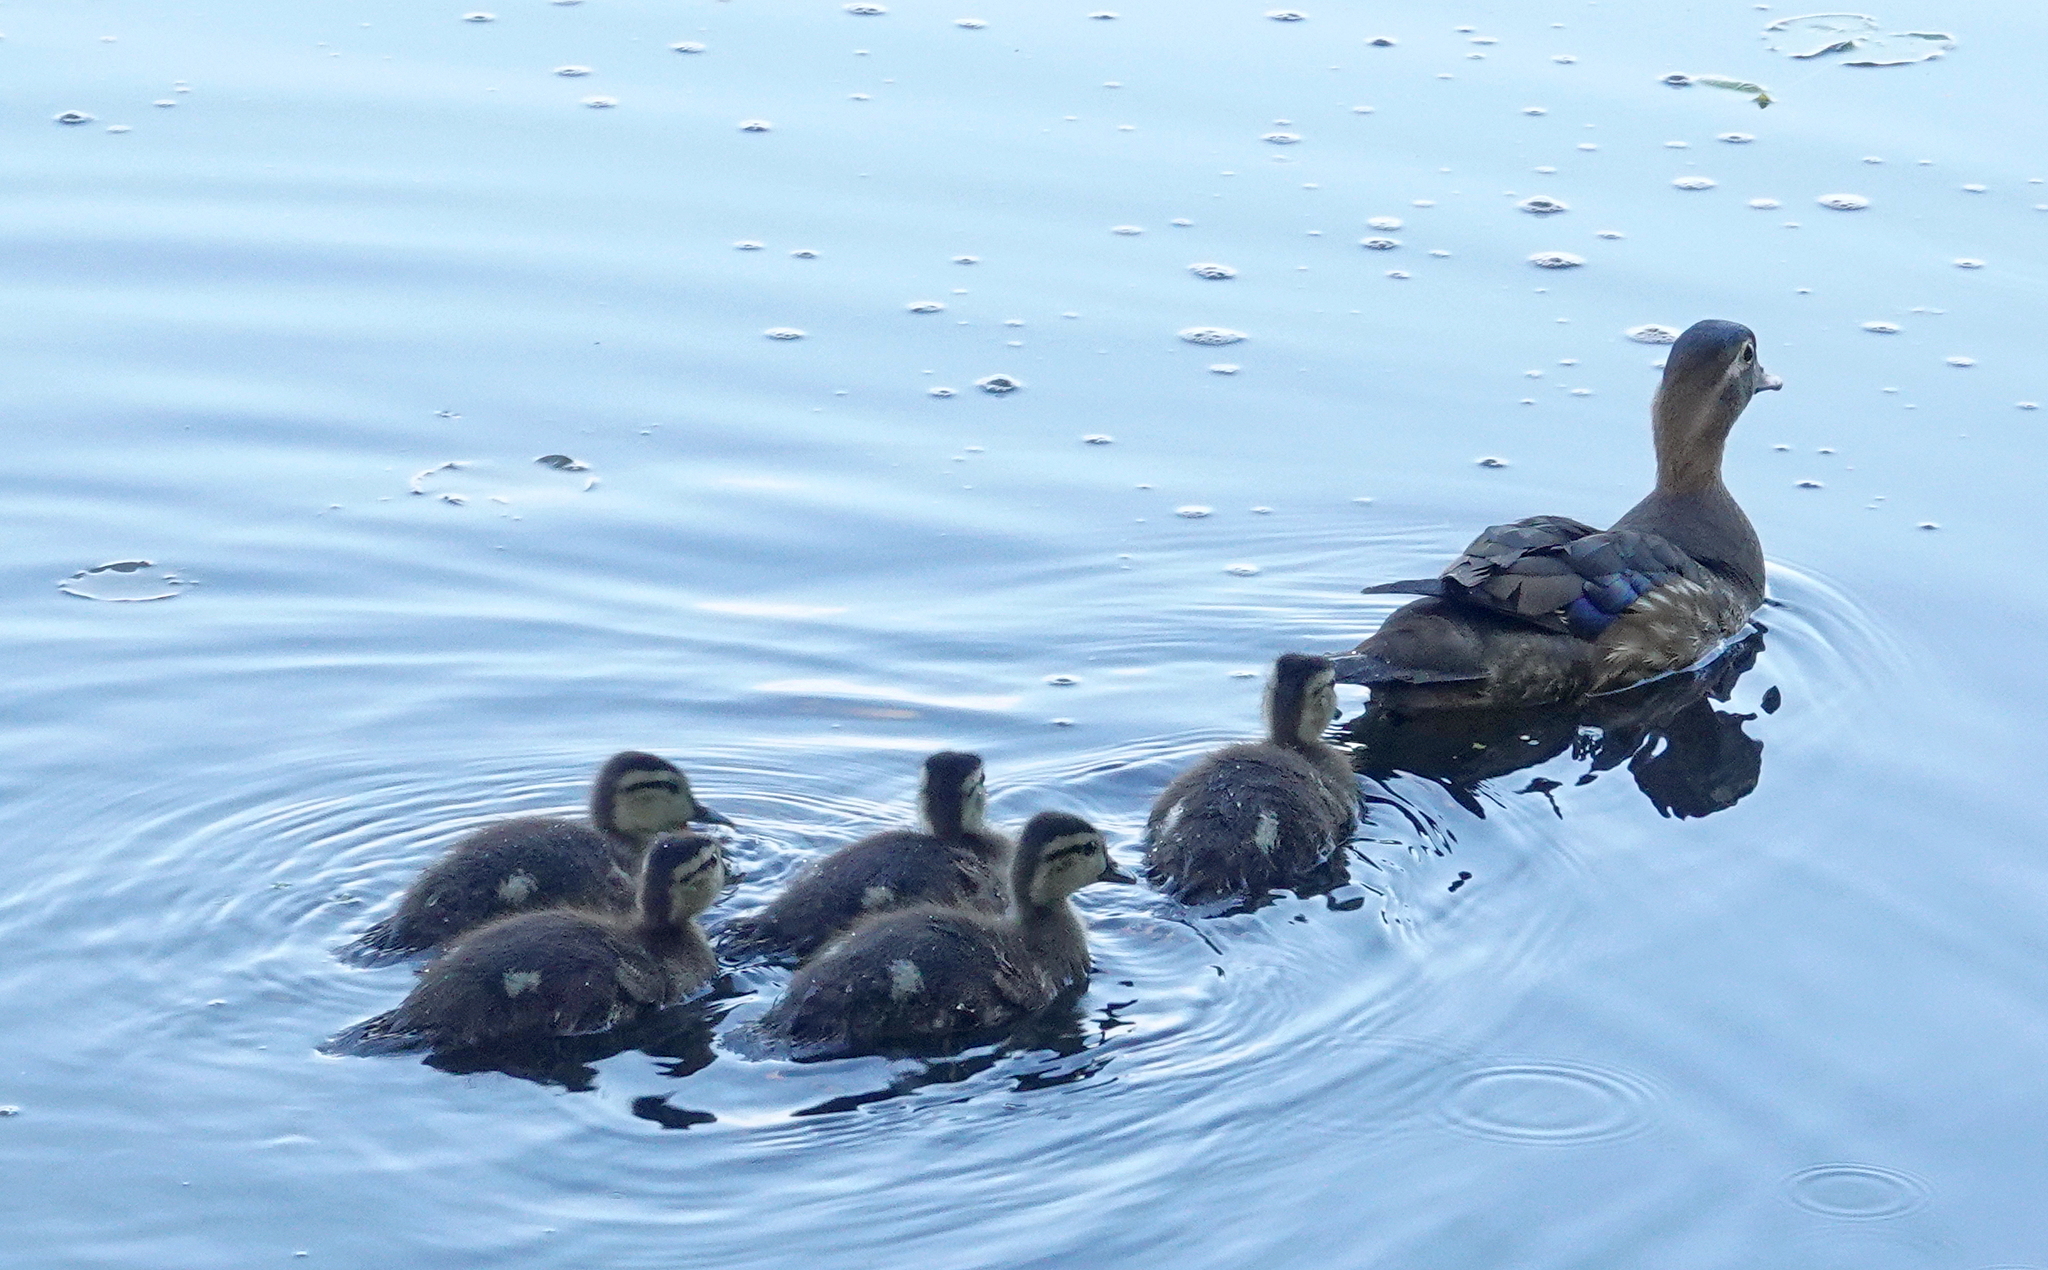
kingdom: Animalia
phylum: Chordata
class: Aves
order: Anseriformes
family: Anatidae
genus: Aix
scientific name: Aix sponsa
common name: Wood duck
